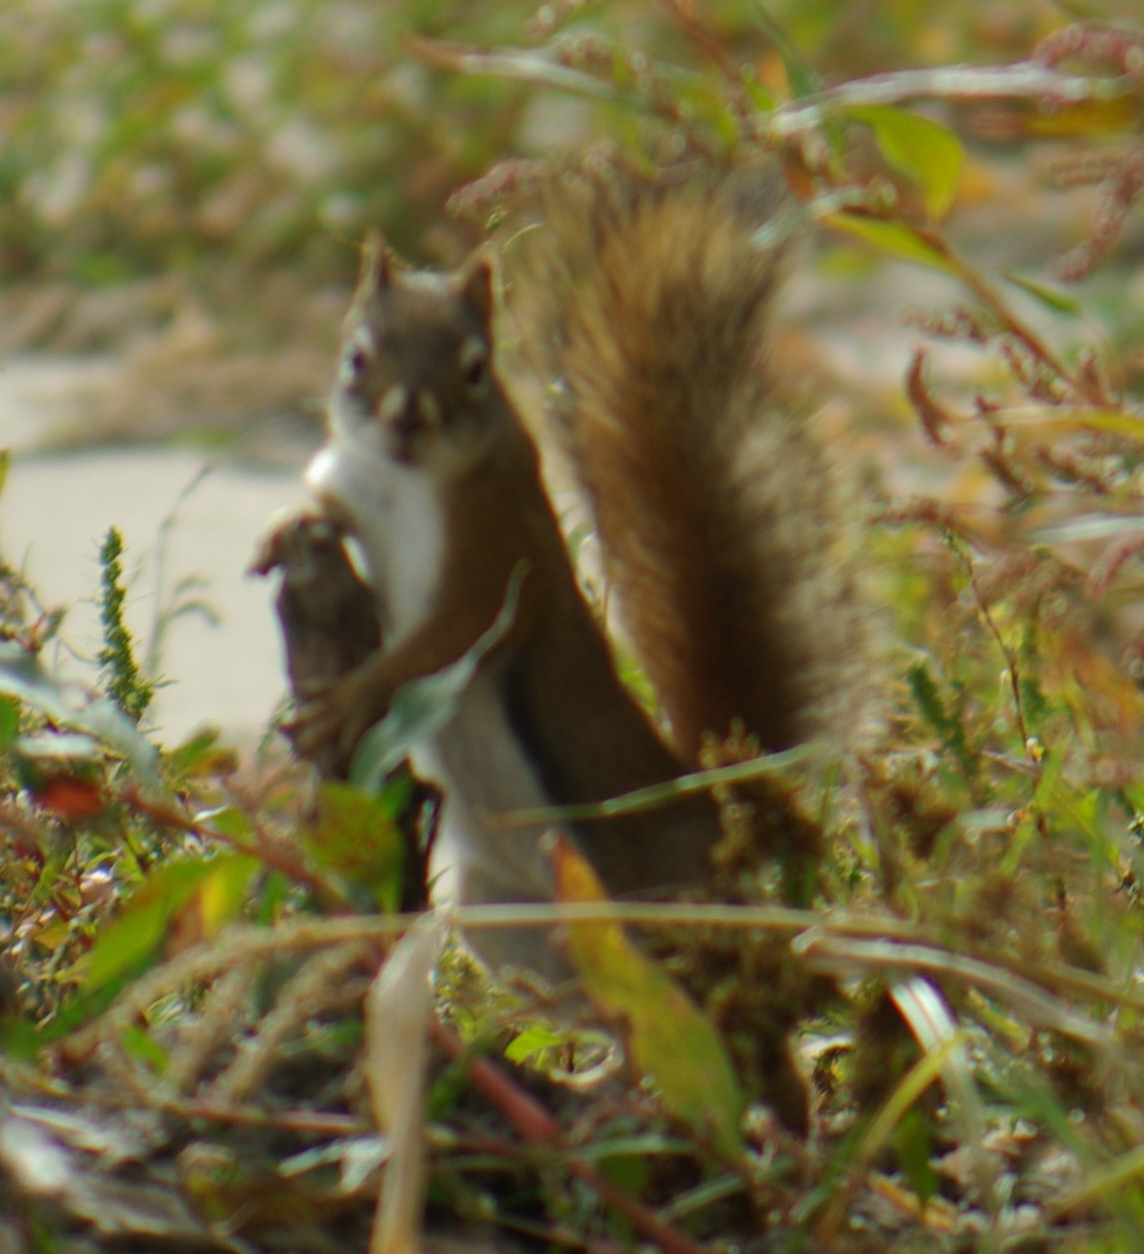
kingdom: Animalia
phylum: Chordata
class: Mammalia
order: Rodentia
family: Sciuridae
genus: Tamiasciurus
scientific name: Tamiasciurus hudsonicus
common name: Red squirrel
